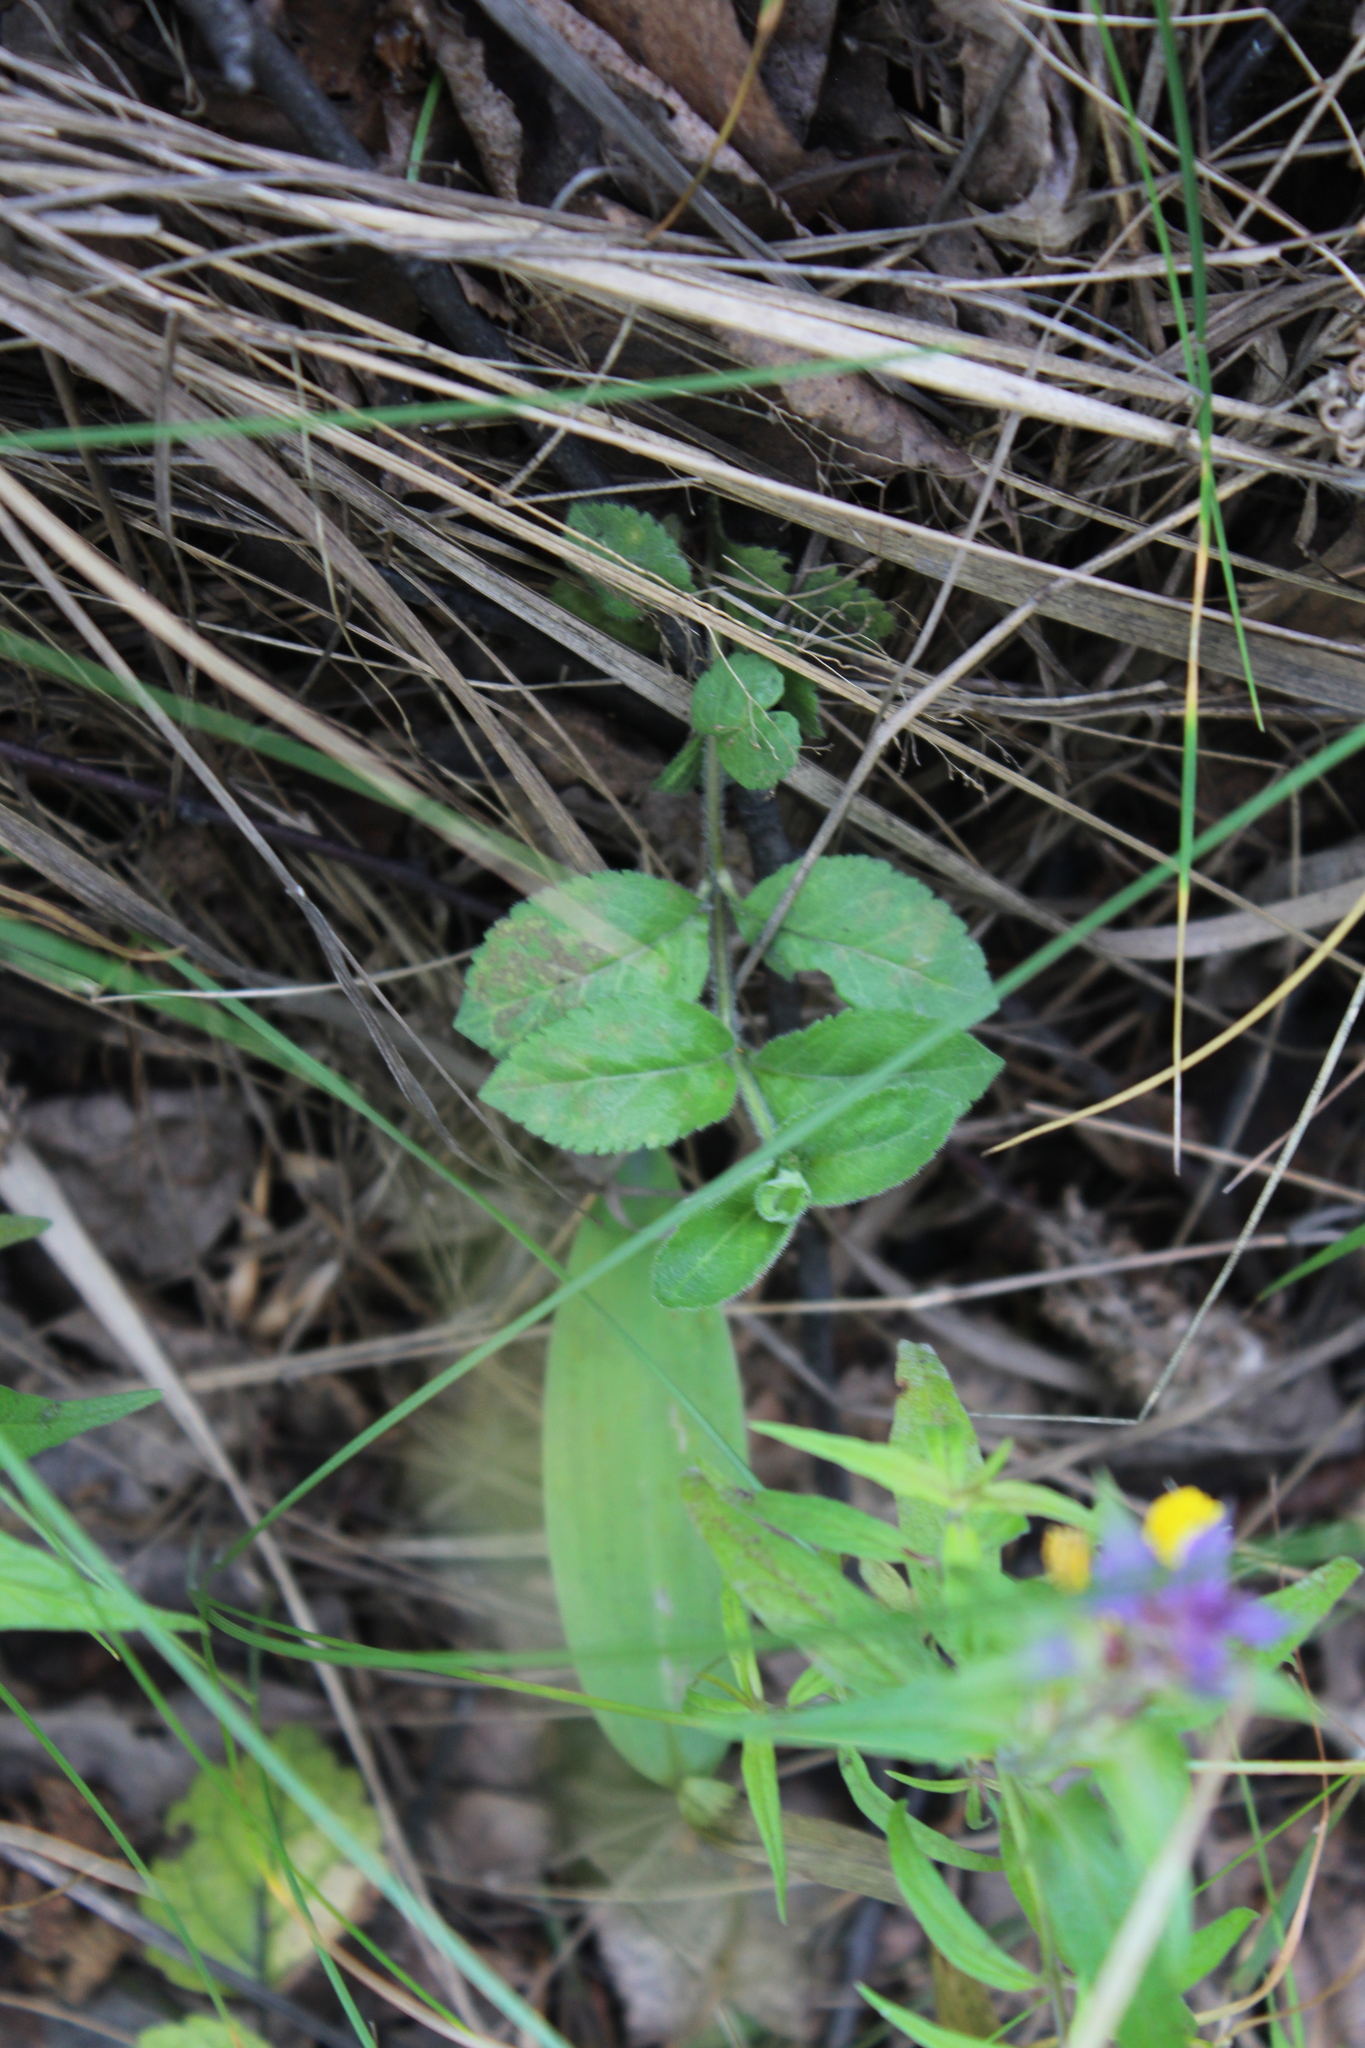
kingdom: Plantae
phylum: Tracheophyta
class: Magnoliopsida
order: Lamiales
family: Plantaginaceae
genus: Veronica
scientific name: Veronica officinalis
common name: Common speedwell
